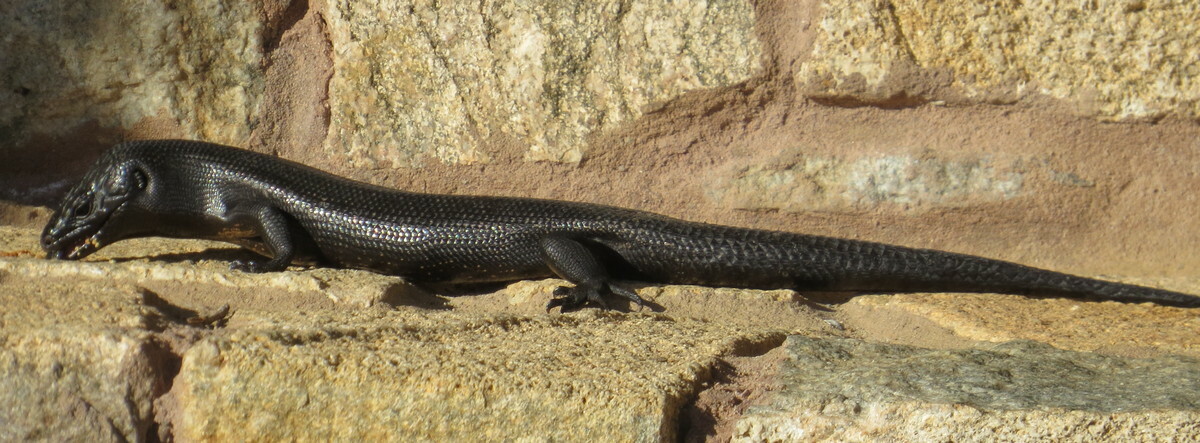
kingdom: Animalia
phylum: Chordata
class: Squamata
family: Scincidae
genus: Egernia
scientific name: Egernia kingii
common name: King's skink
